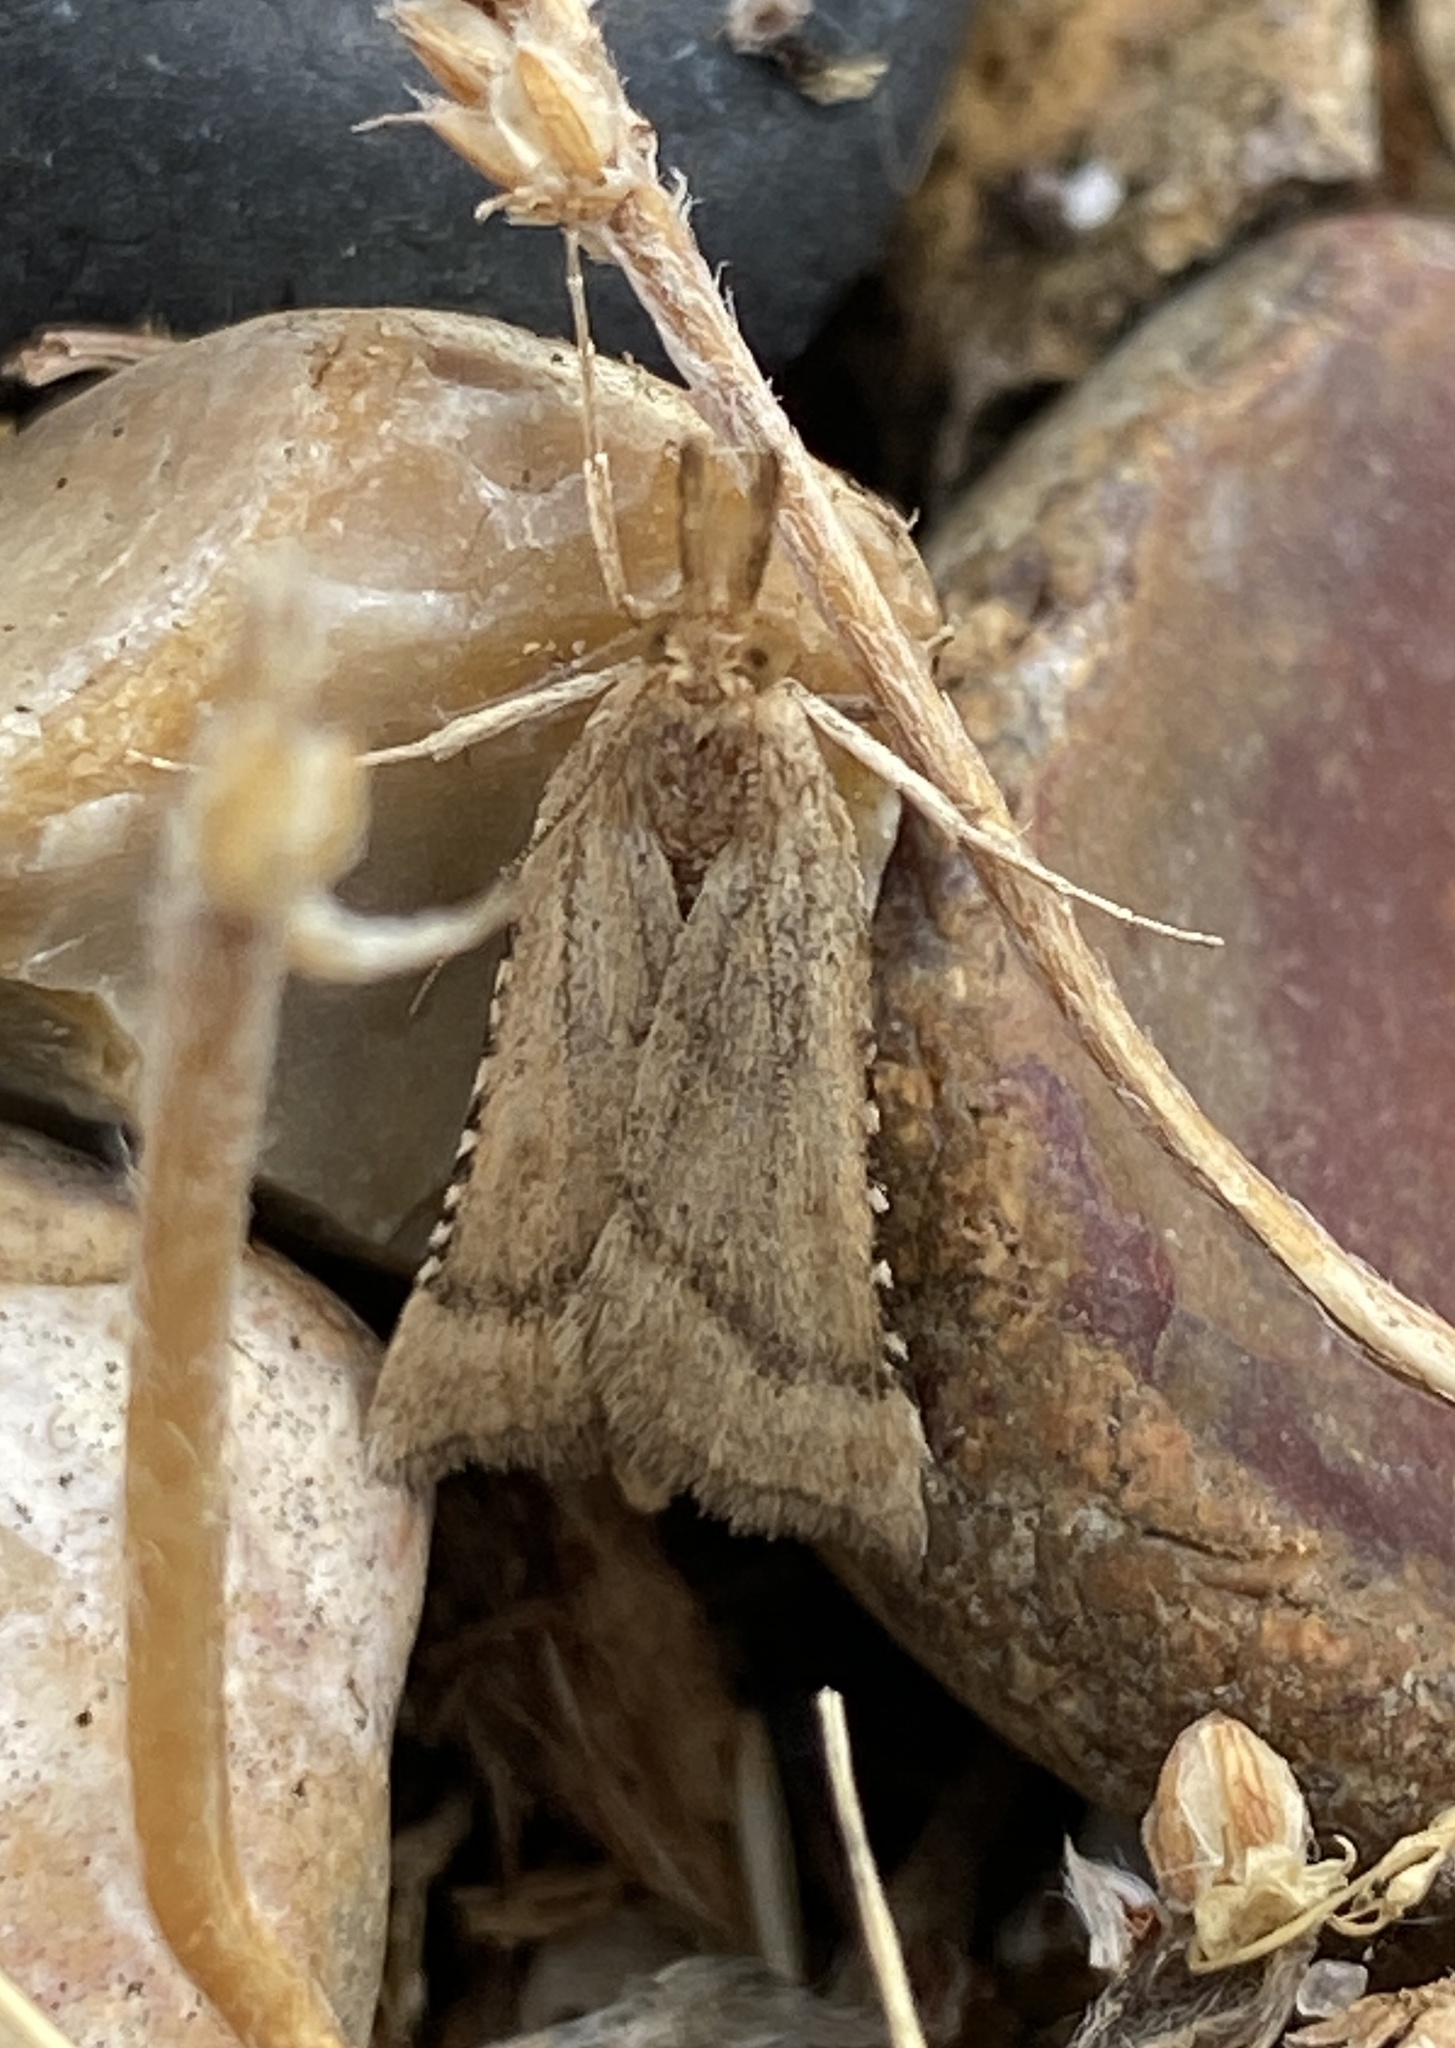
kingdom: Animalia
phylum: Arthropoda
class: Insecta
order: Lepidoptera
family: Pyralidae
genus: Synaphe
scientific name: Synaphe punctalis
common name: Long-legged tabby
